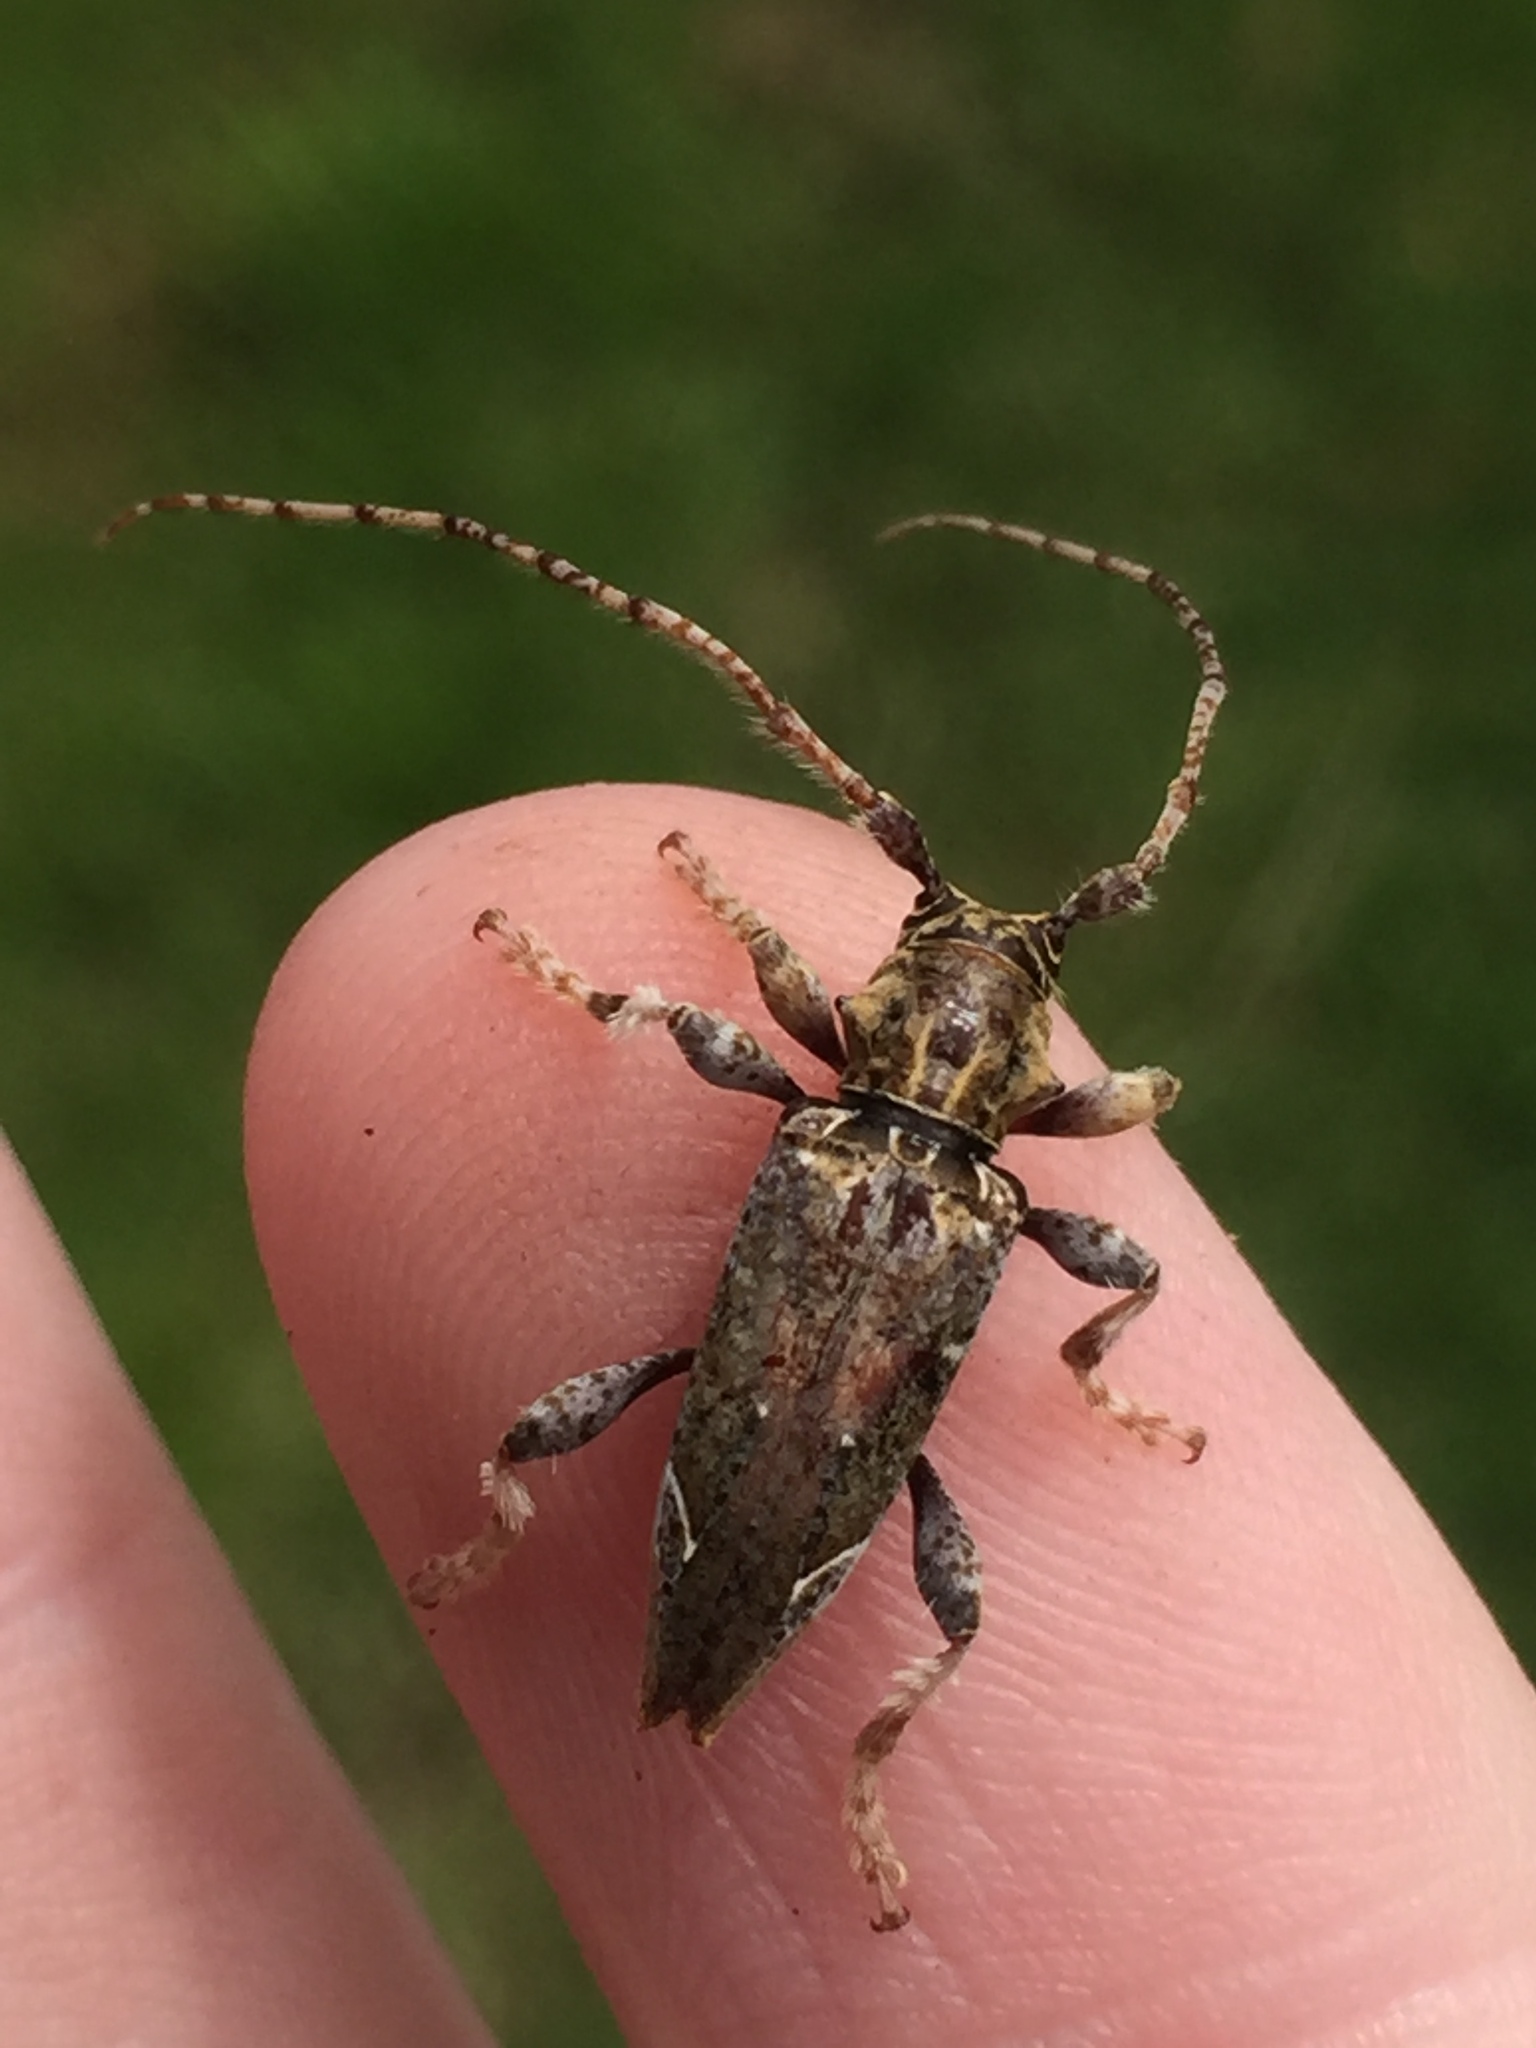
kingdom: Animalia
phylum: Arthropoda
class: Insecta
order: Coleoptera
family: Cerambycidae
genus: Tetrorea
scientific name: Tetrorea cilipes
